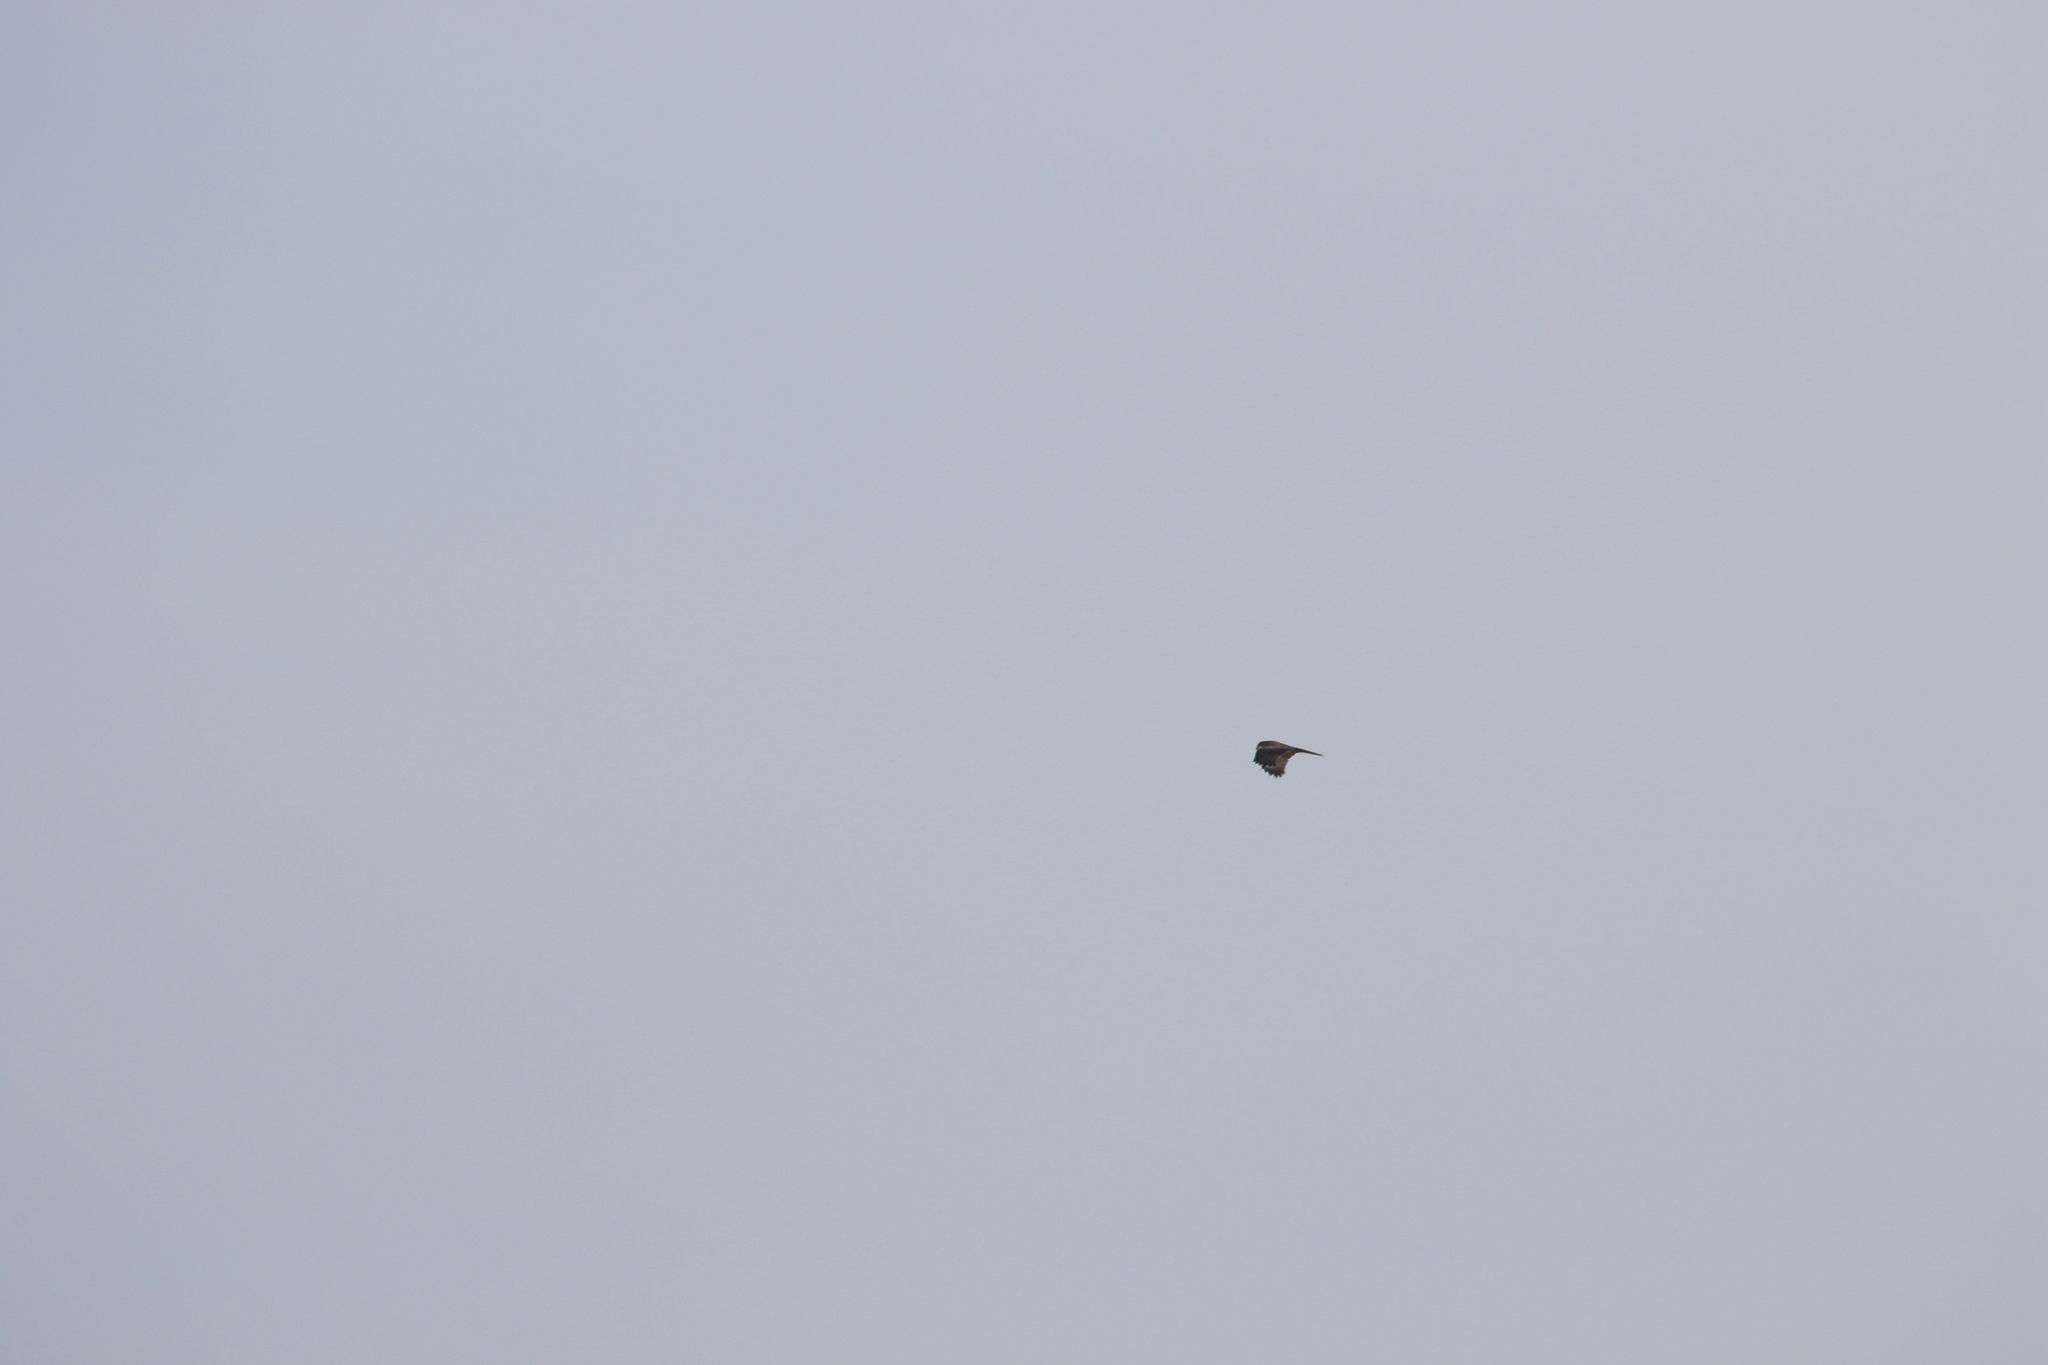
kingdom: Animalia
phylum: Chordata
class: Aves
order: Accipitriformes
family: Accipitridae
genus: Milvus
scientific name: Milvus migrans
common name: Black kite
